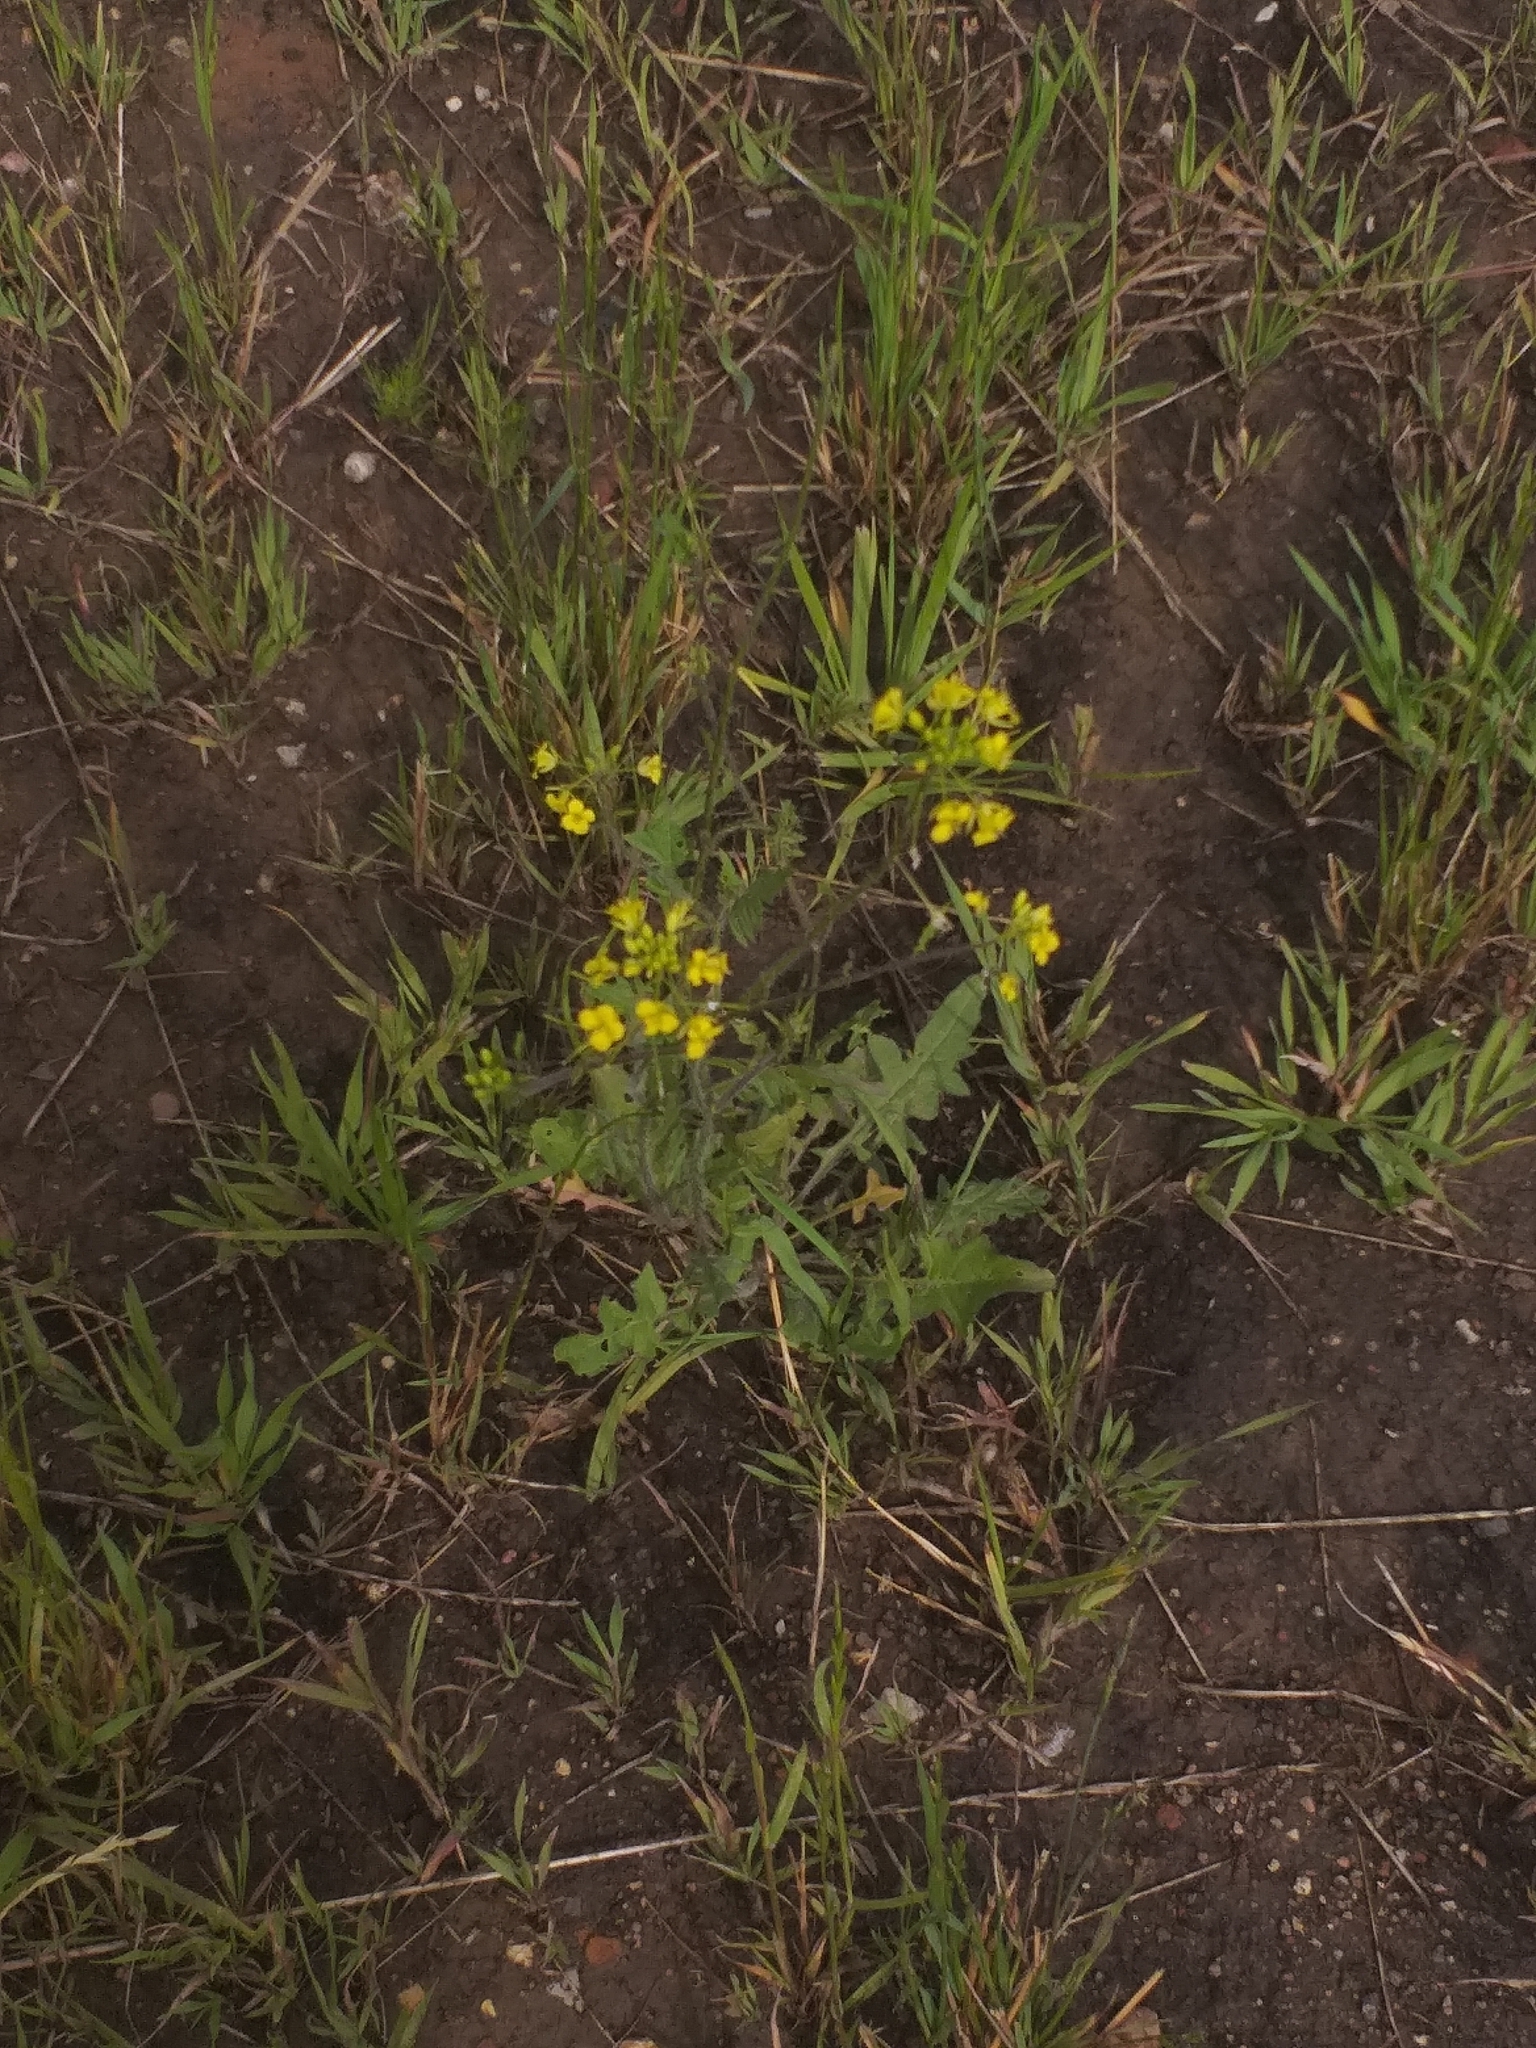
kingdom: Plantae
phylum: Tracheophyta
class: Magnoliopsida
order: Brassicales
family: Brassicaceae
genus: Sisymbrium
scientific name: Sisymbrium loeselii
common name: False london-rocket
